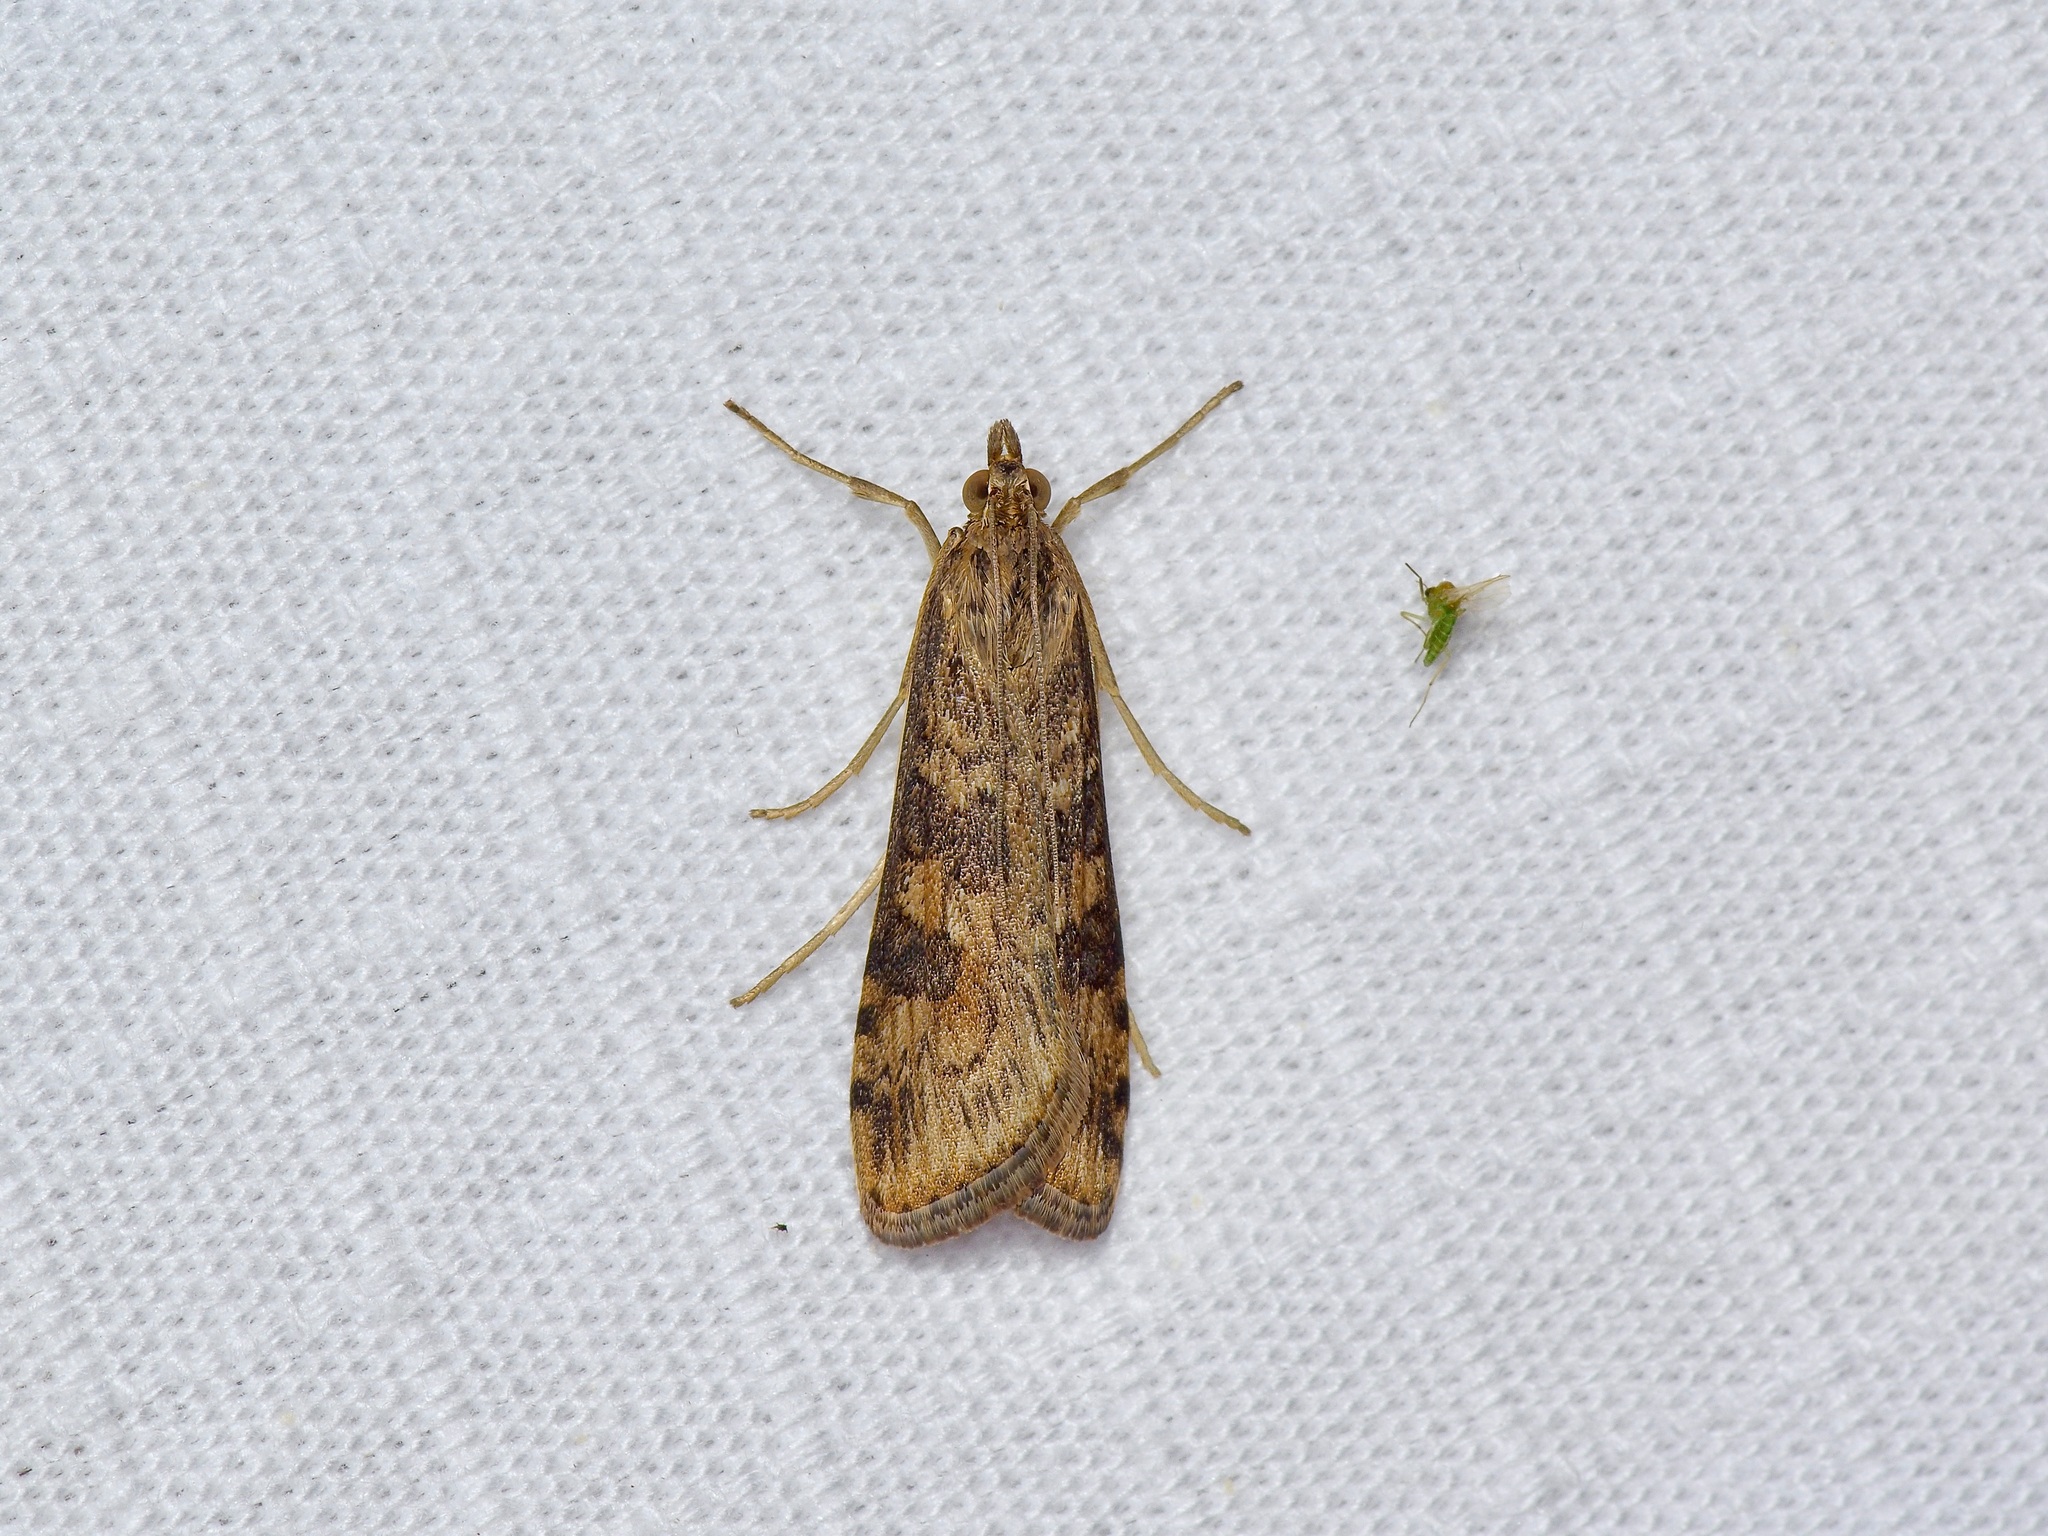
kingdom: Animalia
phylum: Arthropoda
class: Insecta
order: Lepidoptera
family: Crambidae
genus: Nomophila
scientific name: Nomophila nearctica
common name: American rush veneer
